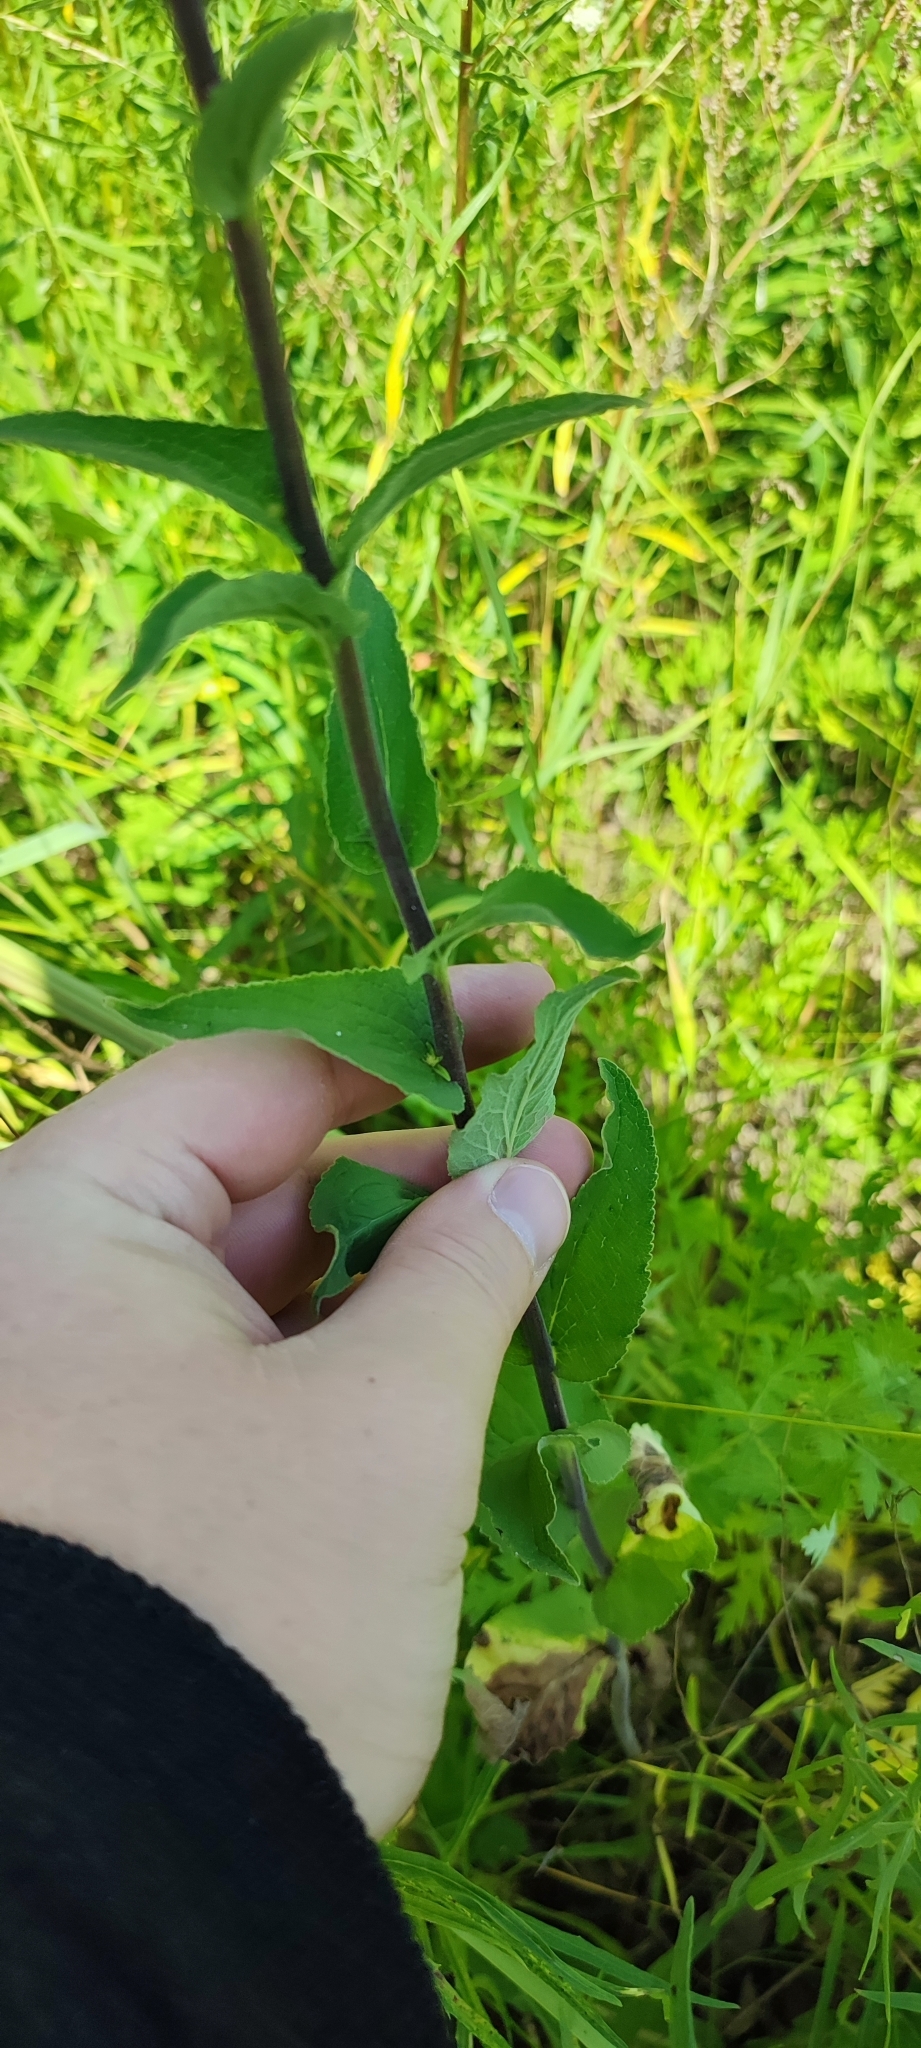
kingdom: Plantae
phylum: Tracheophyta
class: Magnoliopsida
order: Asterales
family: Campanulaceae
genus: Campanula
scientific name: Campanula bononiensis
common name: Pale bellflower
